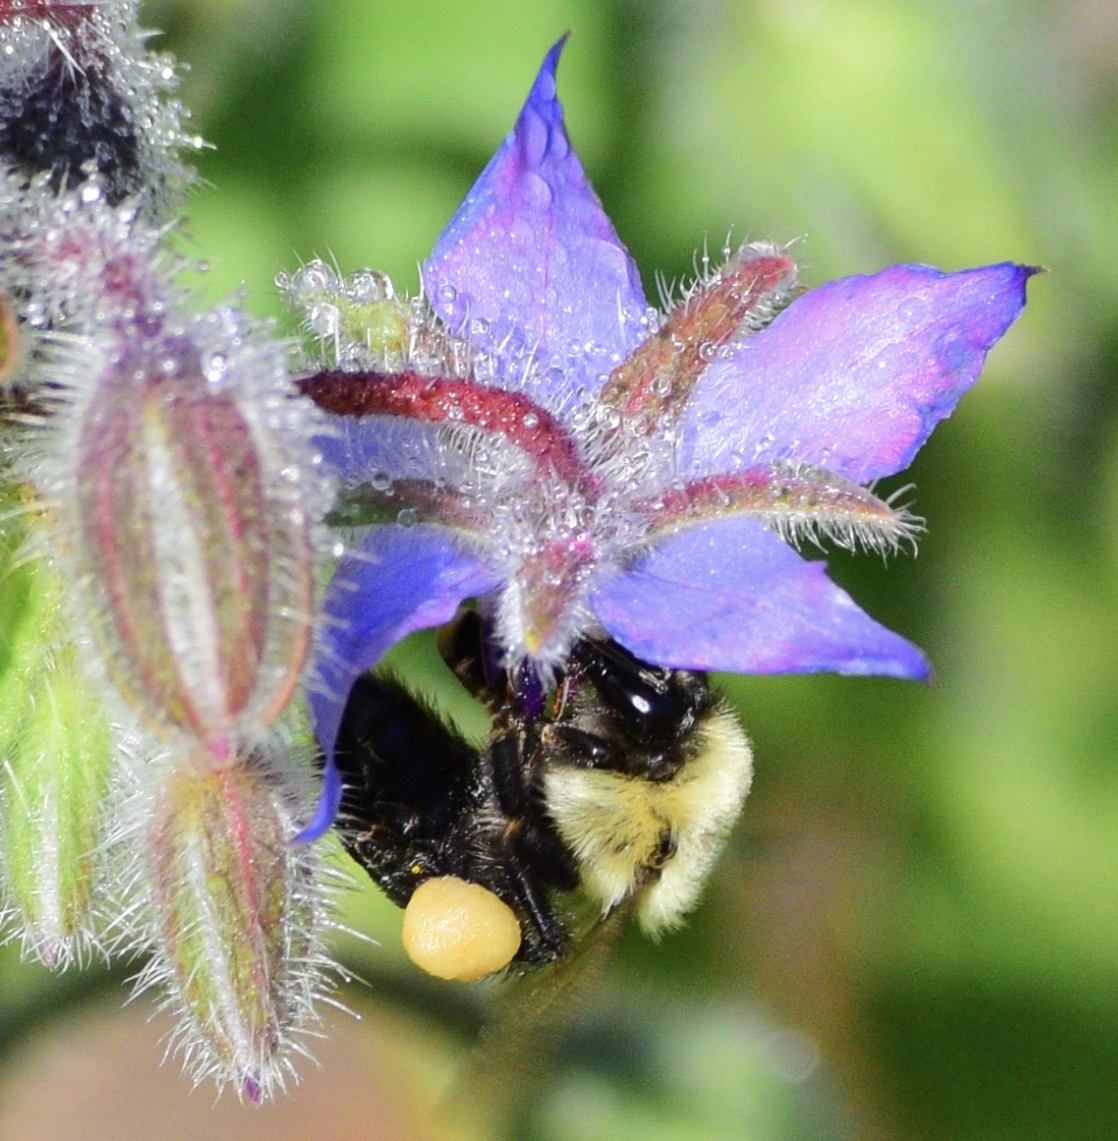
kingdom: Animalia
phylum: Arthropoda
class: Insecta
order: Hymenoptera
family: Apidae
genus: Bombus
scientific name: Bombus impatiens
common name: Common eastern bumble bee
